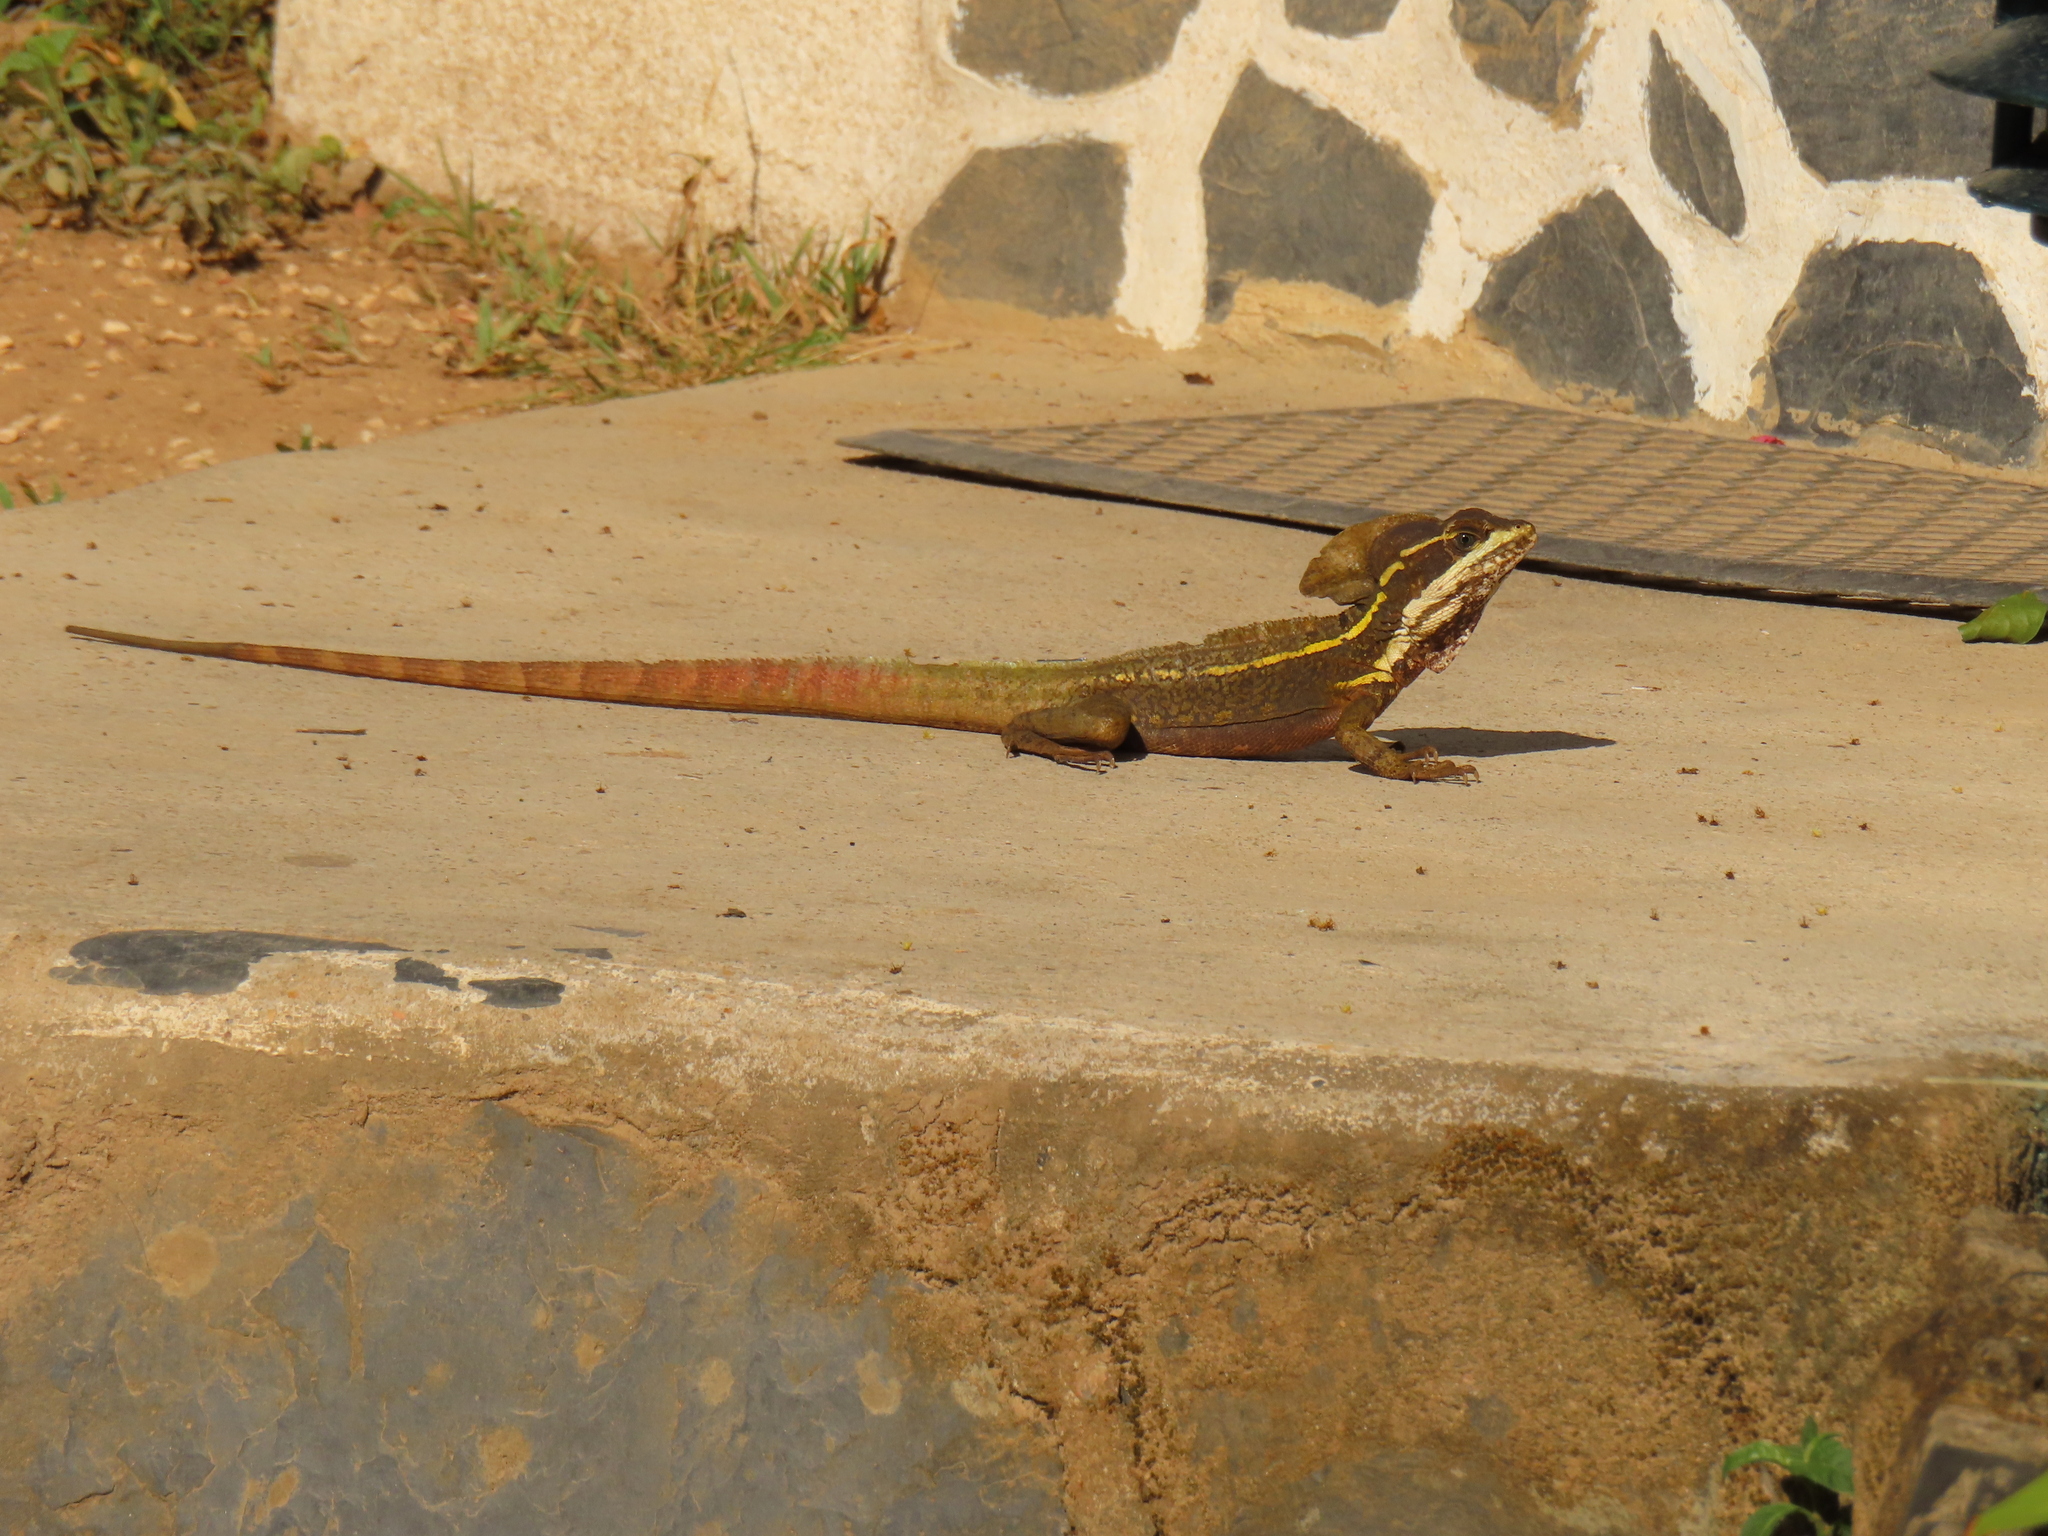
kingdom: Animalia
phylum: Chordata
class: Squamata
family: Corytophanidae
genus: Basiliscus
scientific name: Basiliscus vittatus
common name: Brown basilisk
